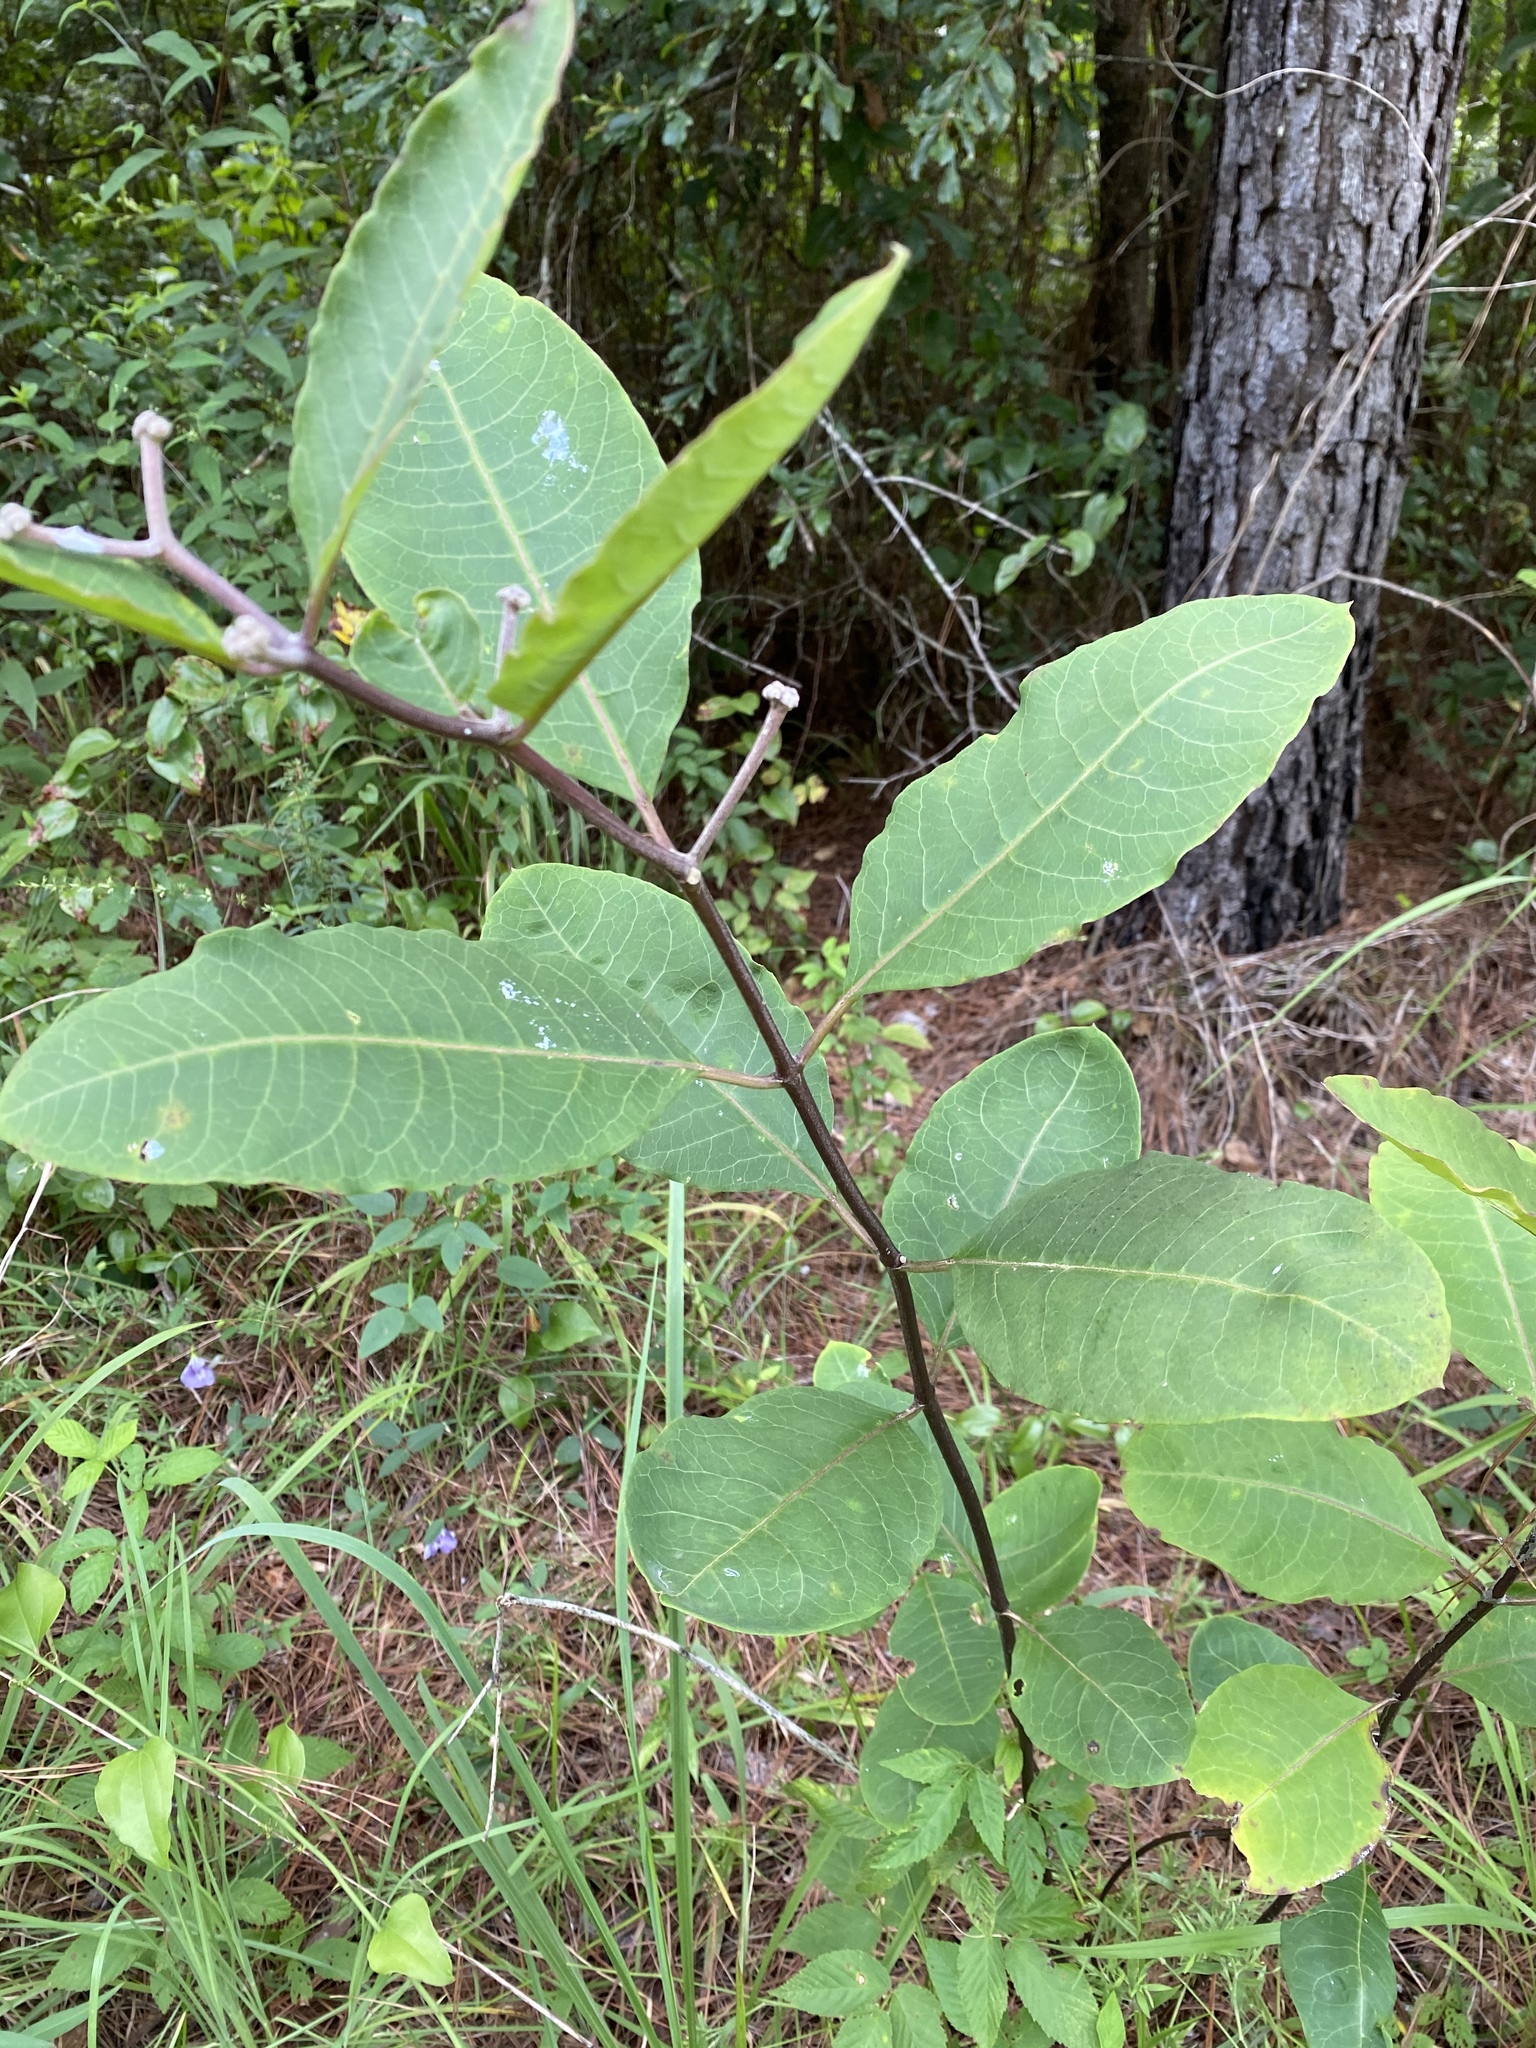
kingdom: Plantae
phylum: Tracheophyta
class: Magnoliopsida
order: Gentianales
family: Apocynaceae
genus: Asclepias
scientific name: Asclepias variegata
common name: Variegated milkweed
